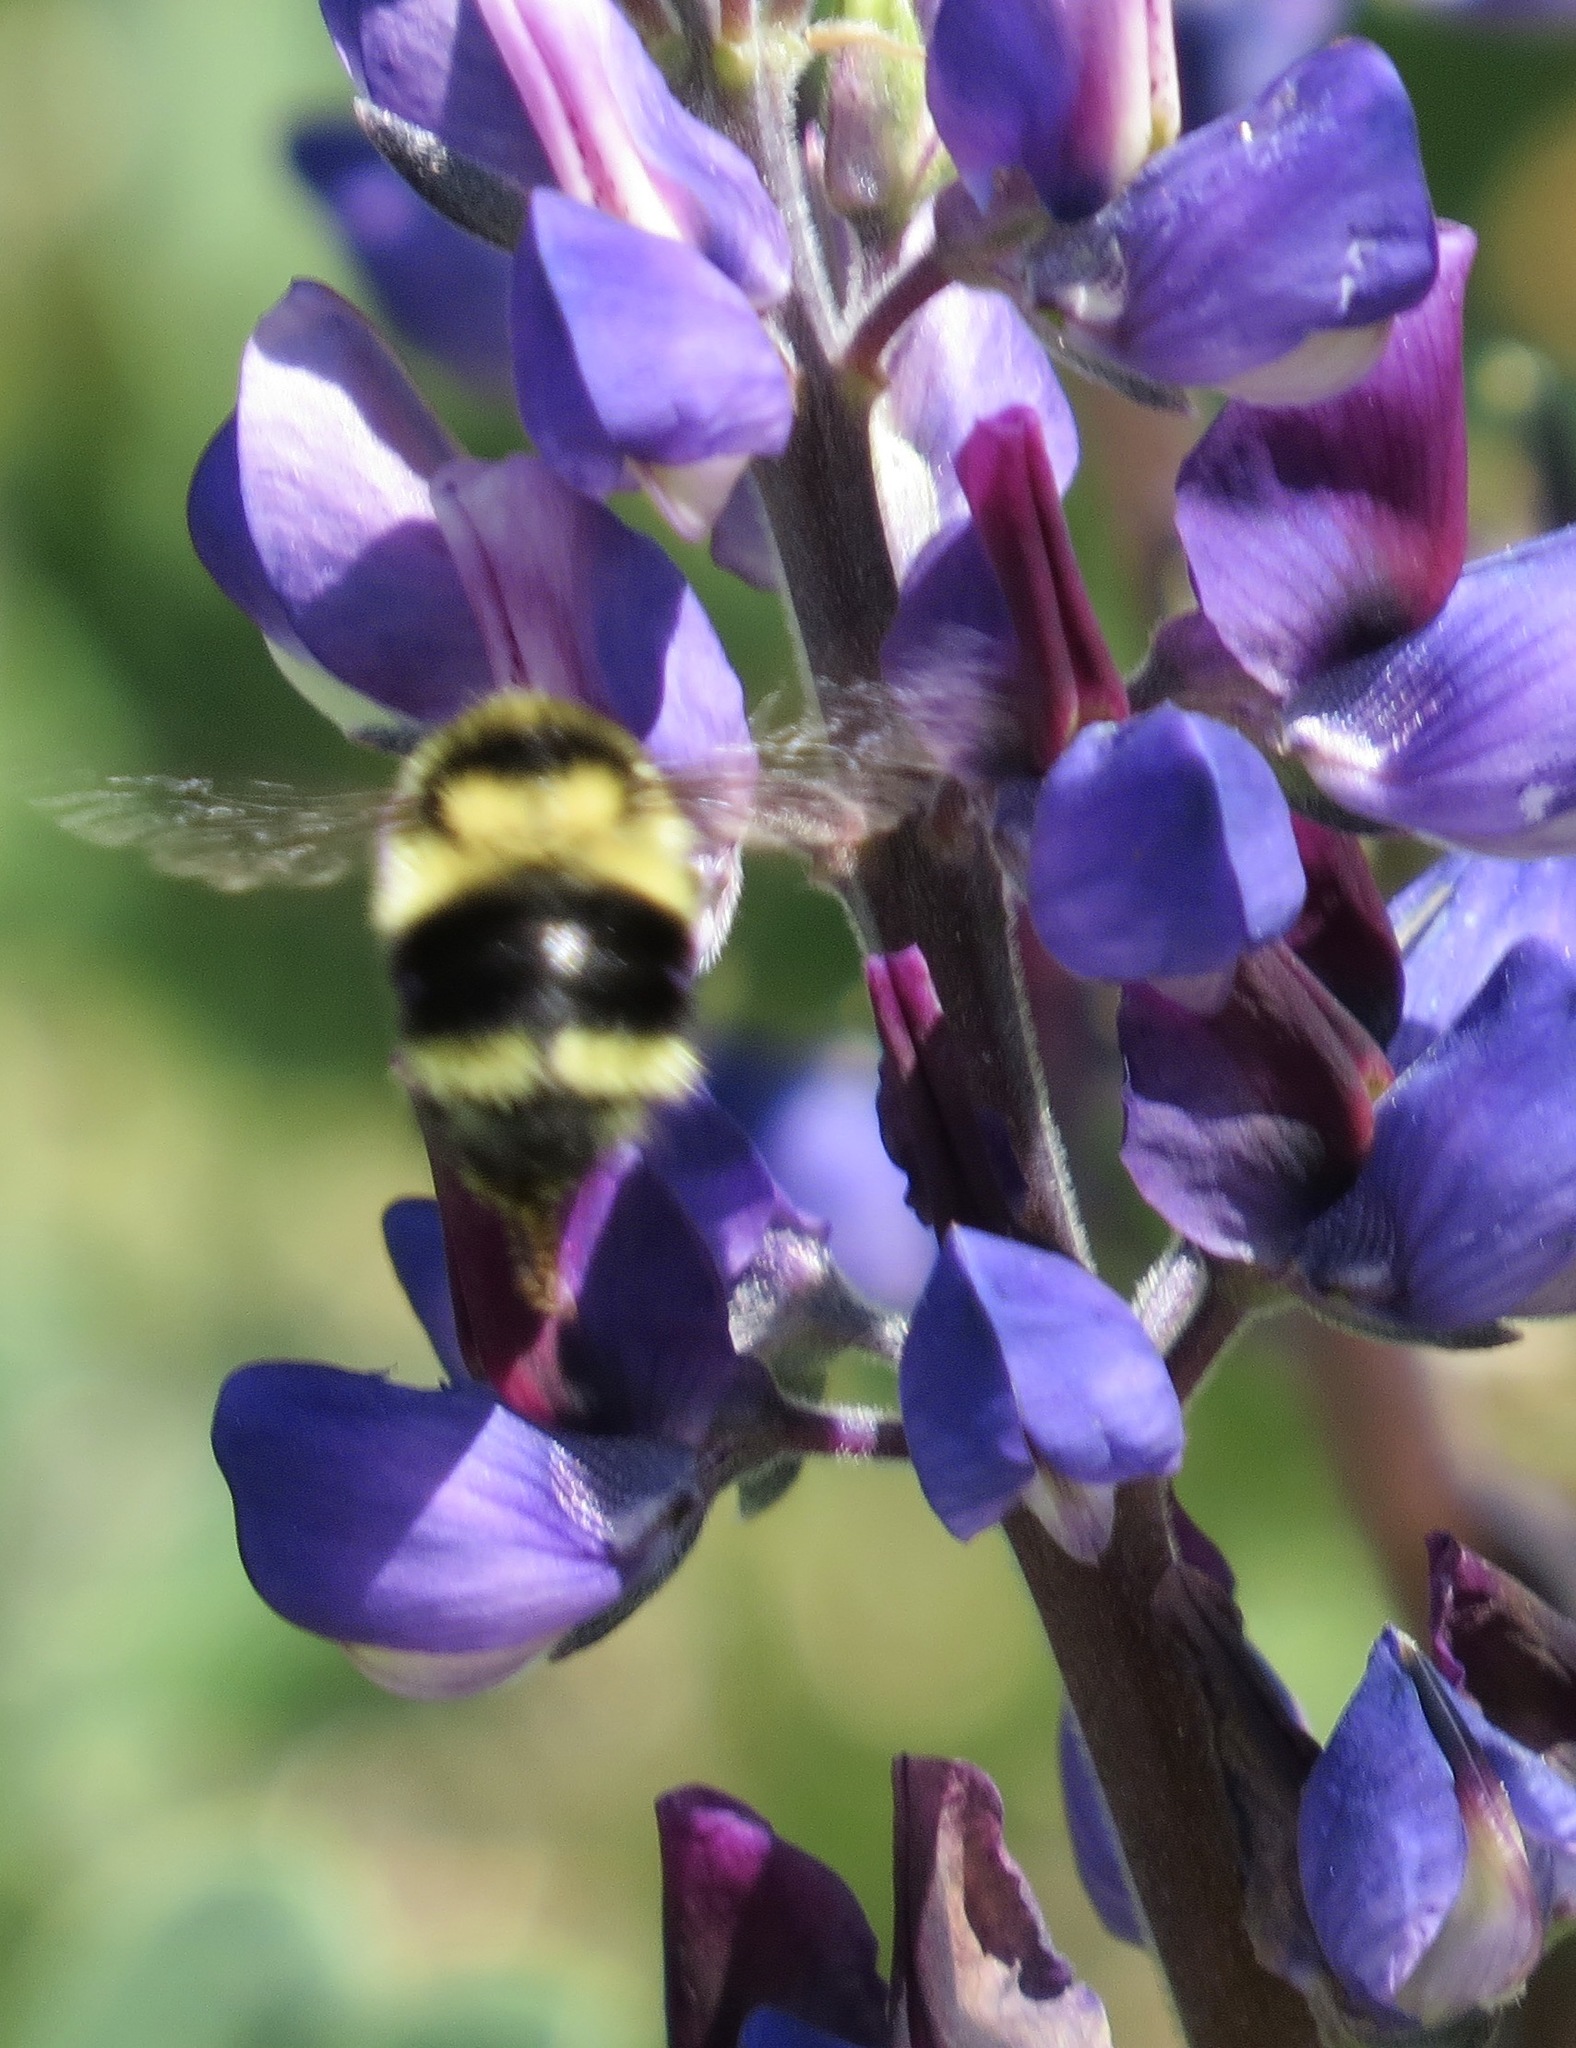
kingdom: Animalia
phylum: Arthropoda
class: Insecta
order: Hymenoptera
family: Apidae
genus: Bombus
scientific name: Bombus melanopygus
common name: Black tail bumble bee
